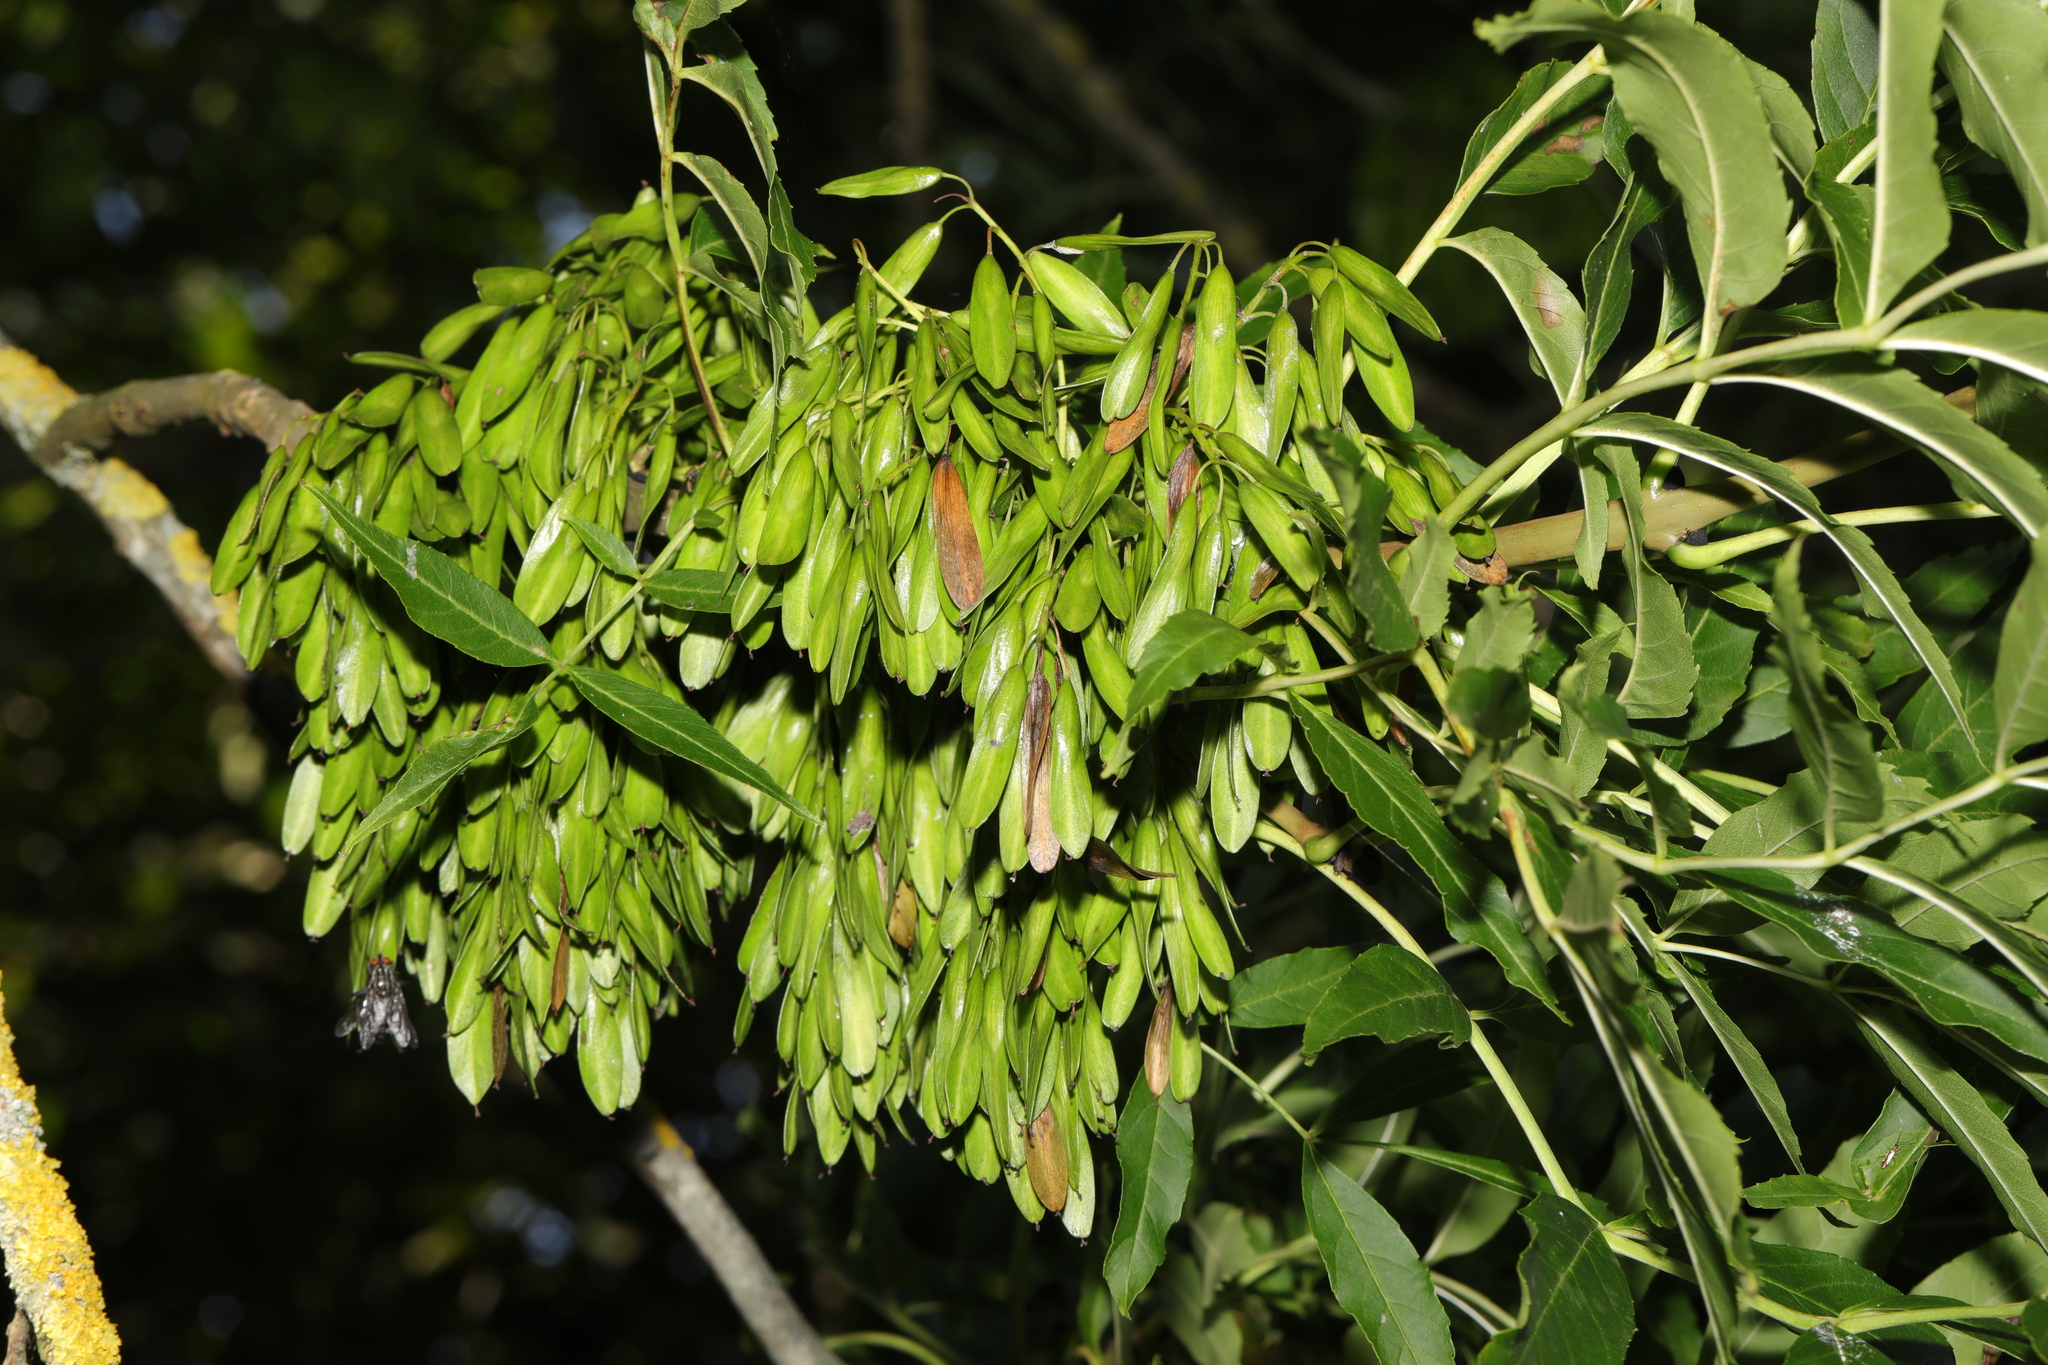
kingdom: Plantae
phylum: Tracheophyta
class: Magnoliopsida
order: Lamiales
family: Oleaceae
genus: Fraxinus
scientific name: Fraxinus excelsior
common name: European ash
